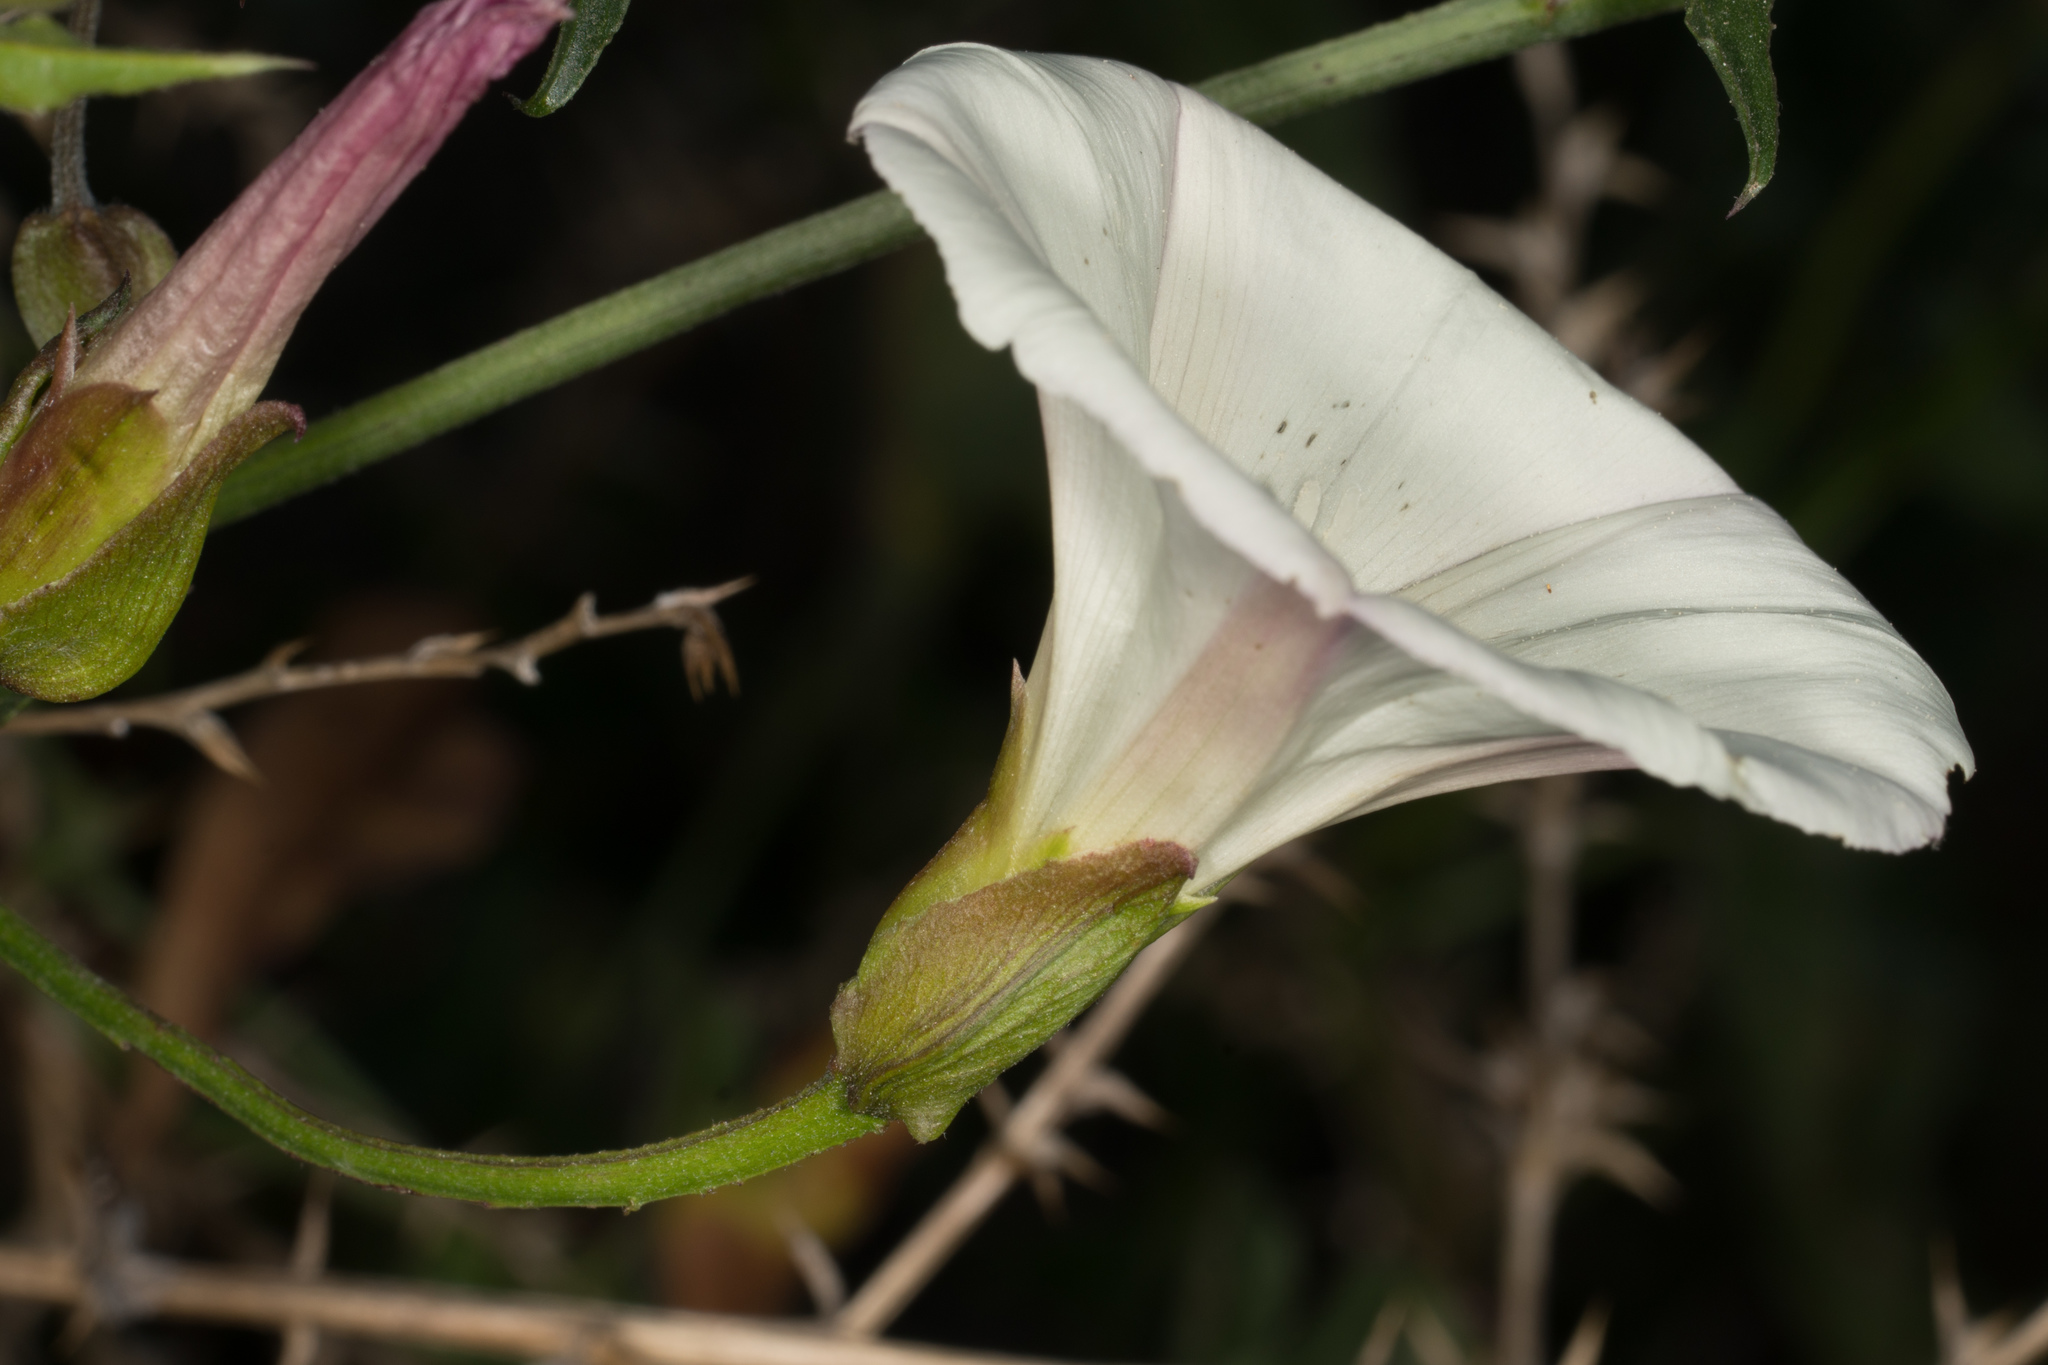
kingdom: Plantae
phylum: Tracheophyta
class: Magnoliopsida
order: Solanales
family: Convolvulaceae
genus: Calystegia
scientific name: Calystegia macrostegia
